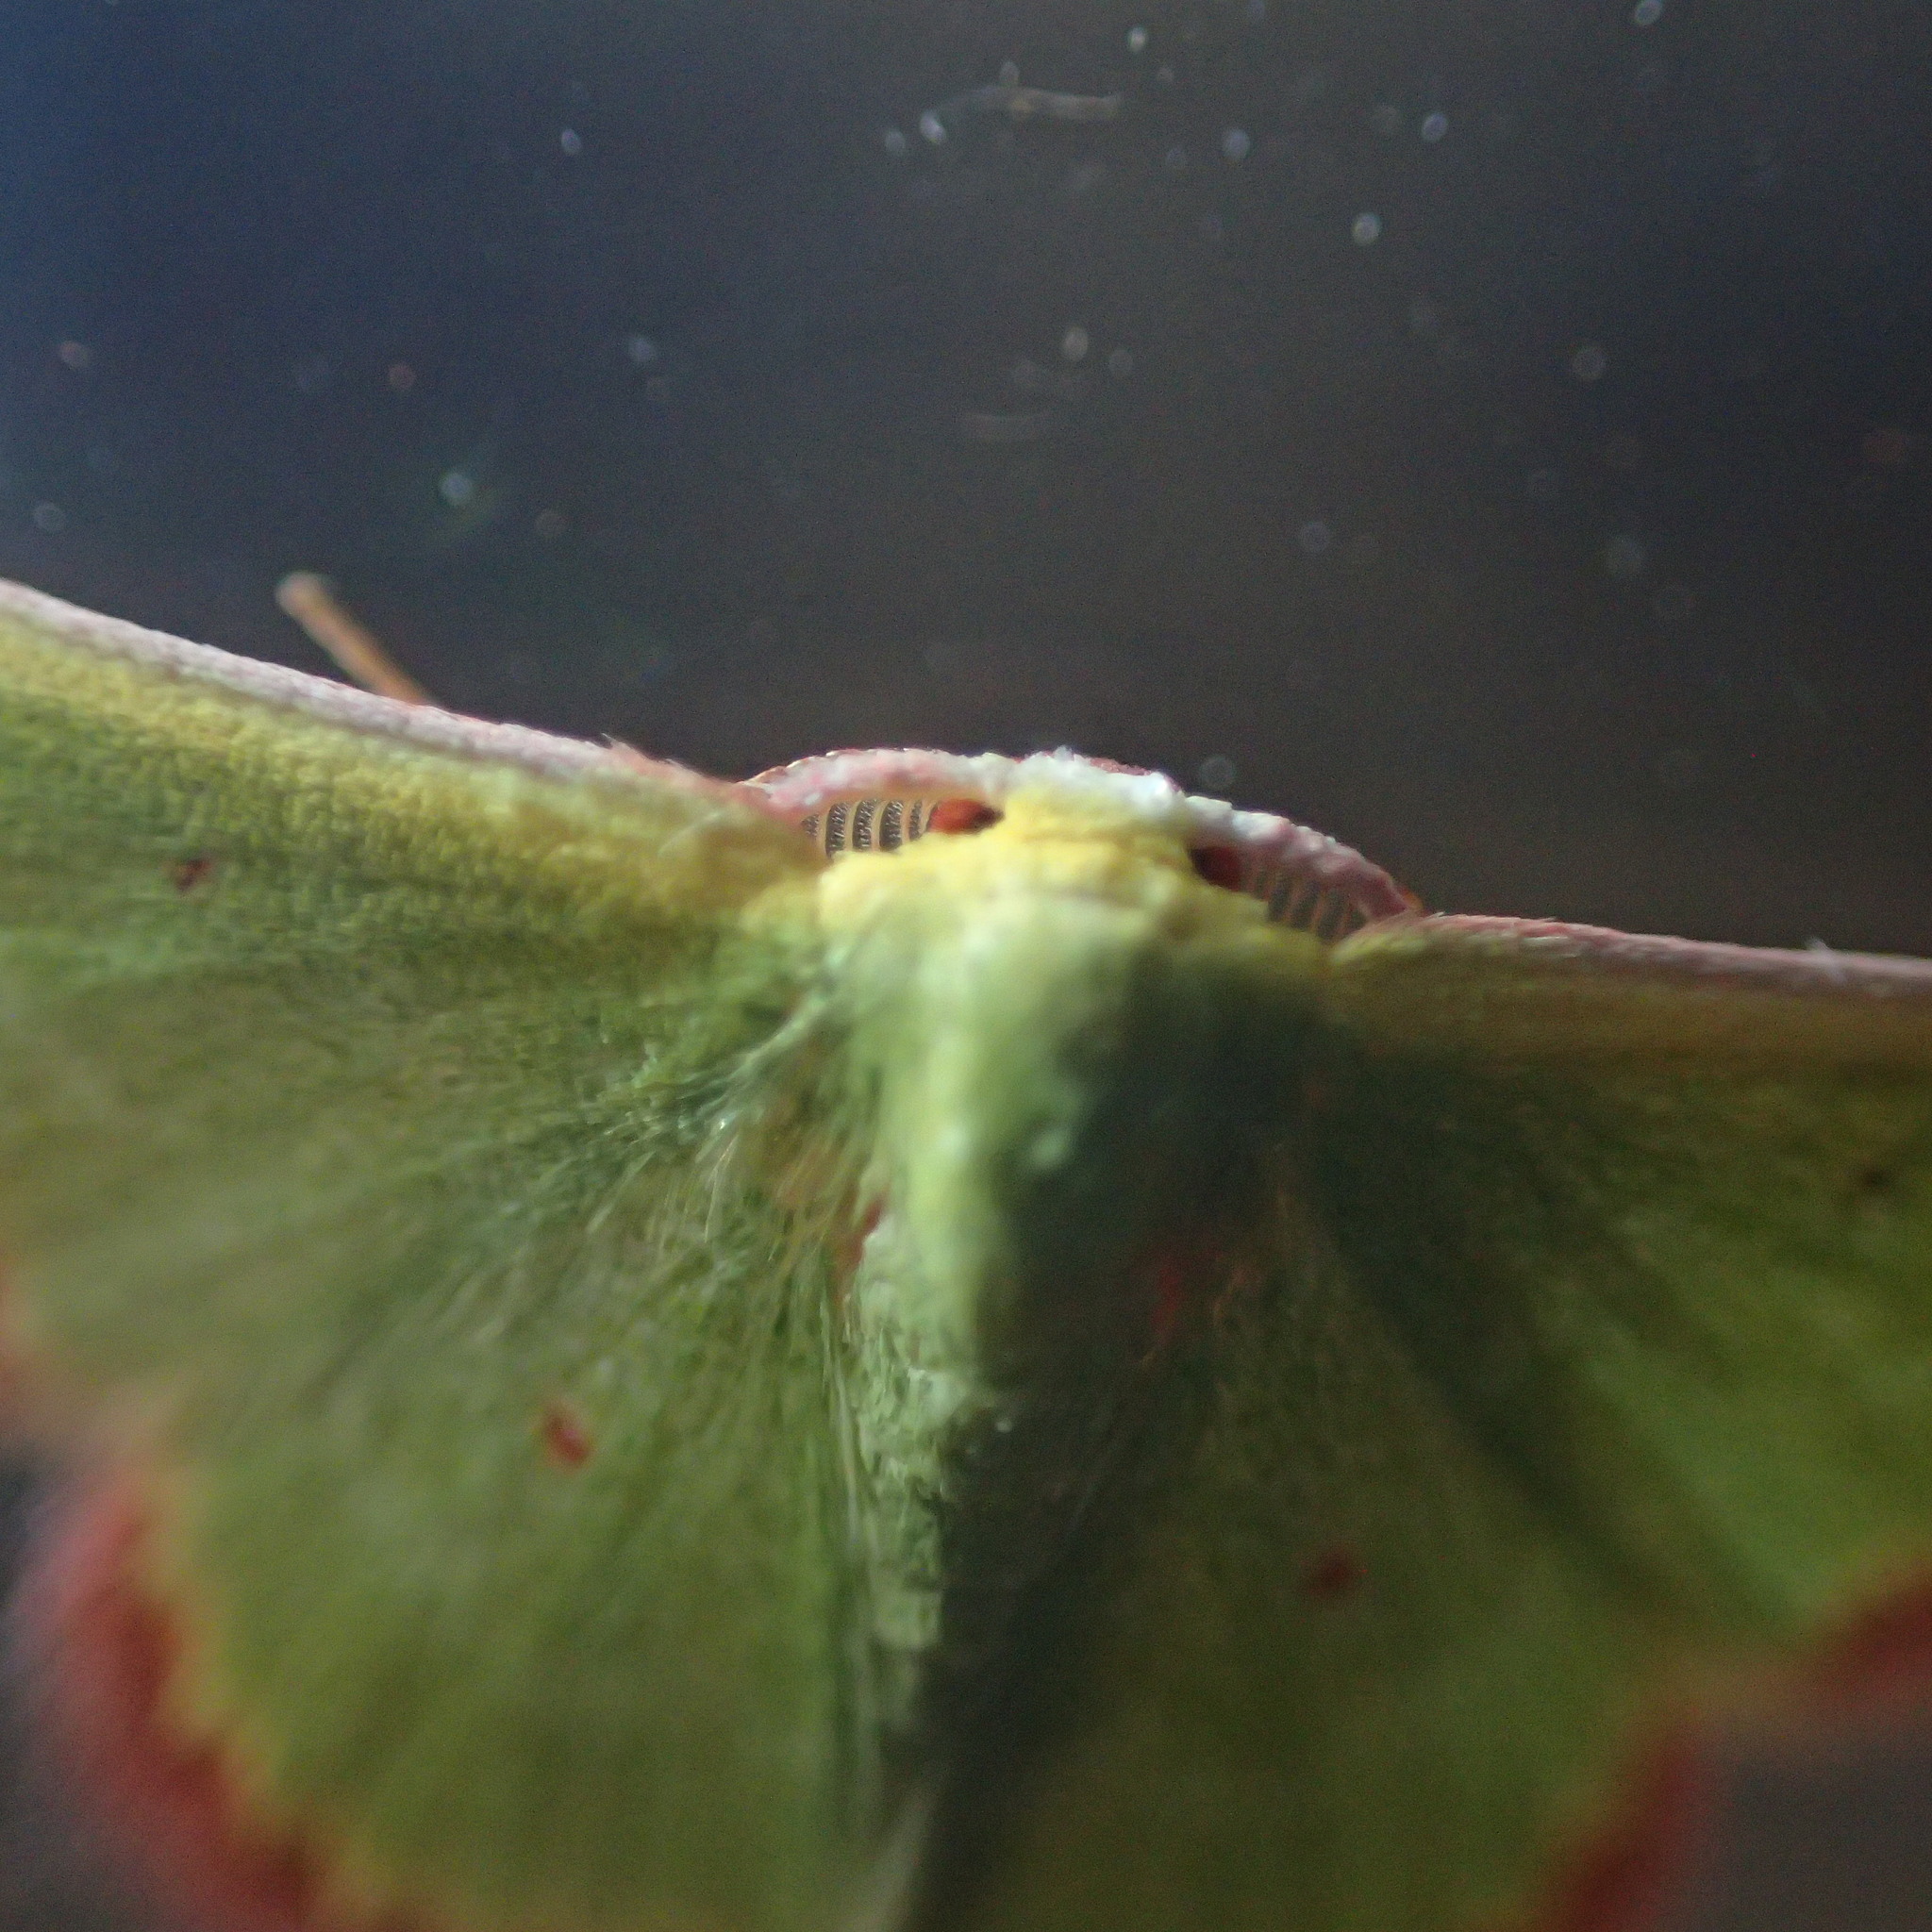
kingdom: Animalia
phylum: Arthropoda
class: Insecta
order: Lepidoptera
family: Geometridae
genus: Eucrostes
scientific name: Eucrostes disparata
